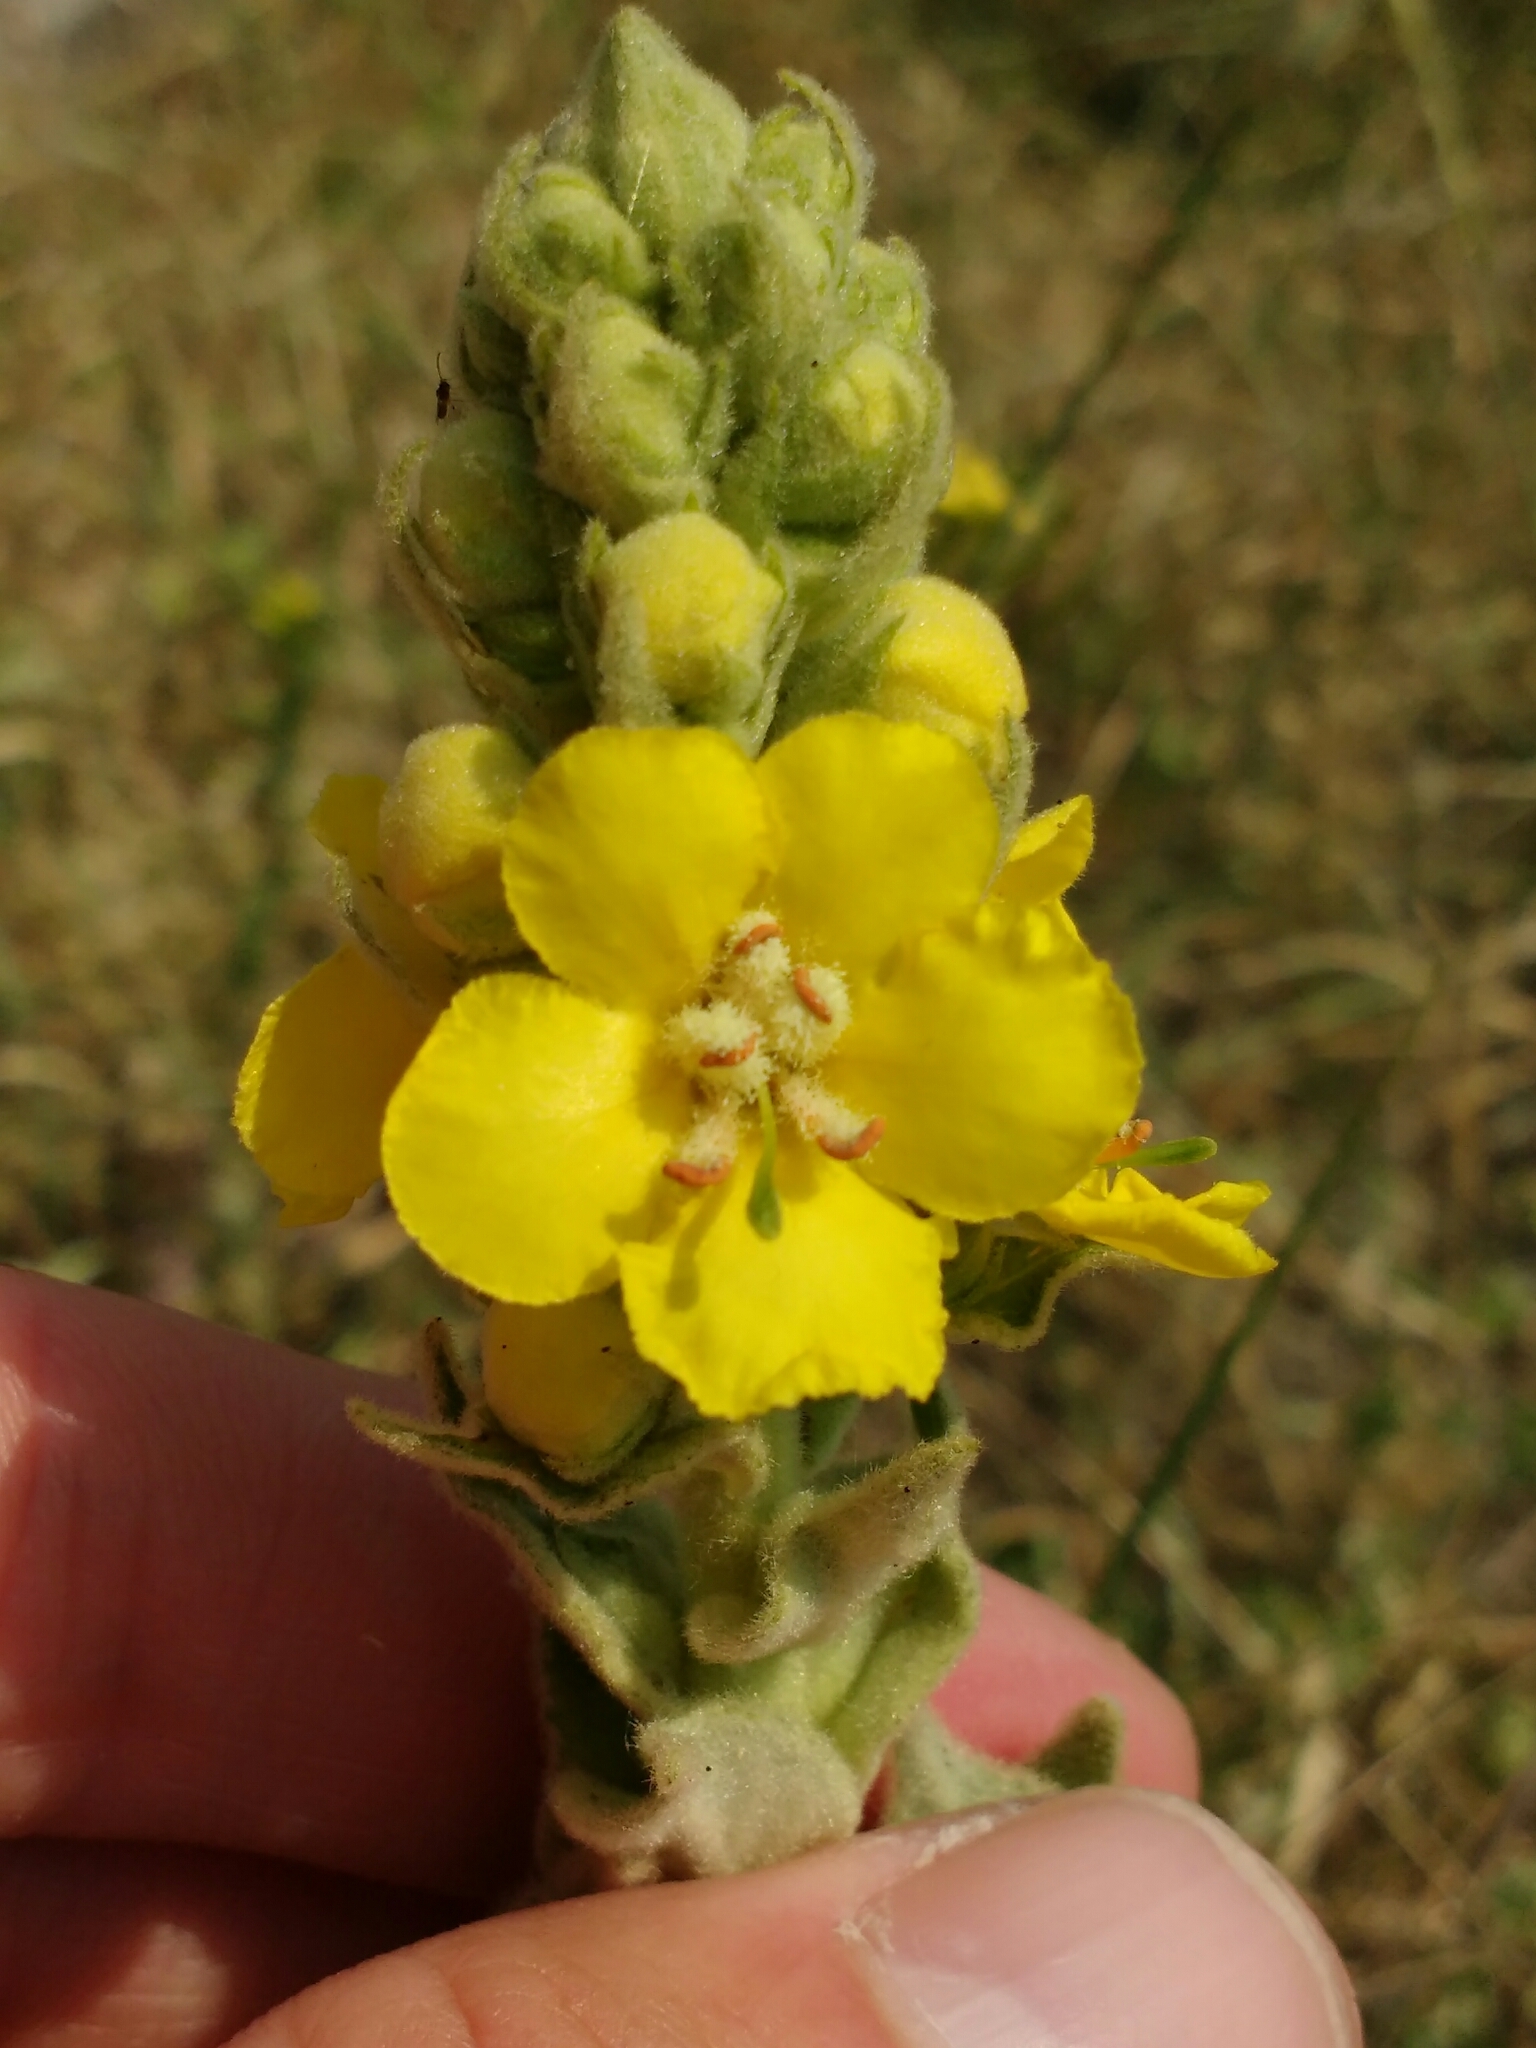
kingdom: Plantae
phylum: Tracheophyta
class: Magnoliopsida
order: Lamiales
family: Scrophulariaceae
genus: Verbascum
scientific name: Verbascum speciosum
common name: Hungarian mullein
